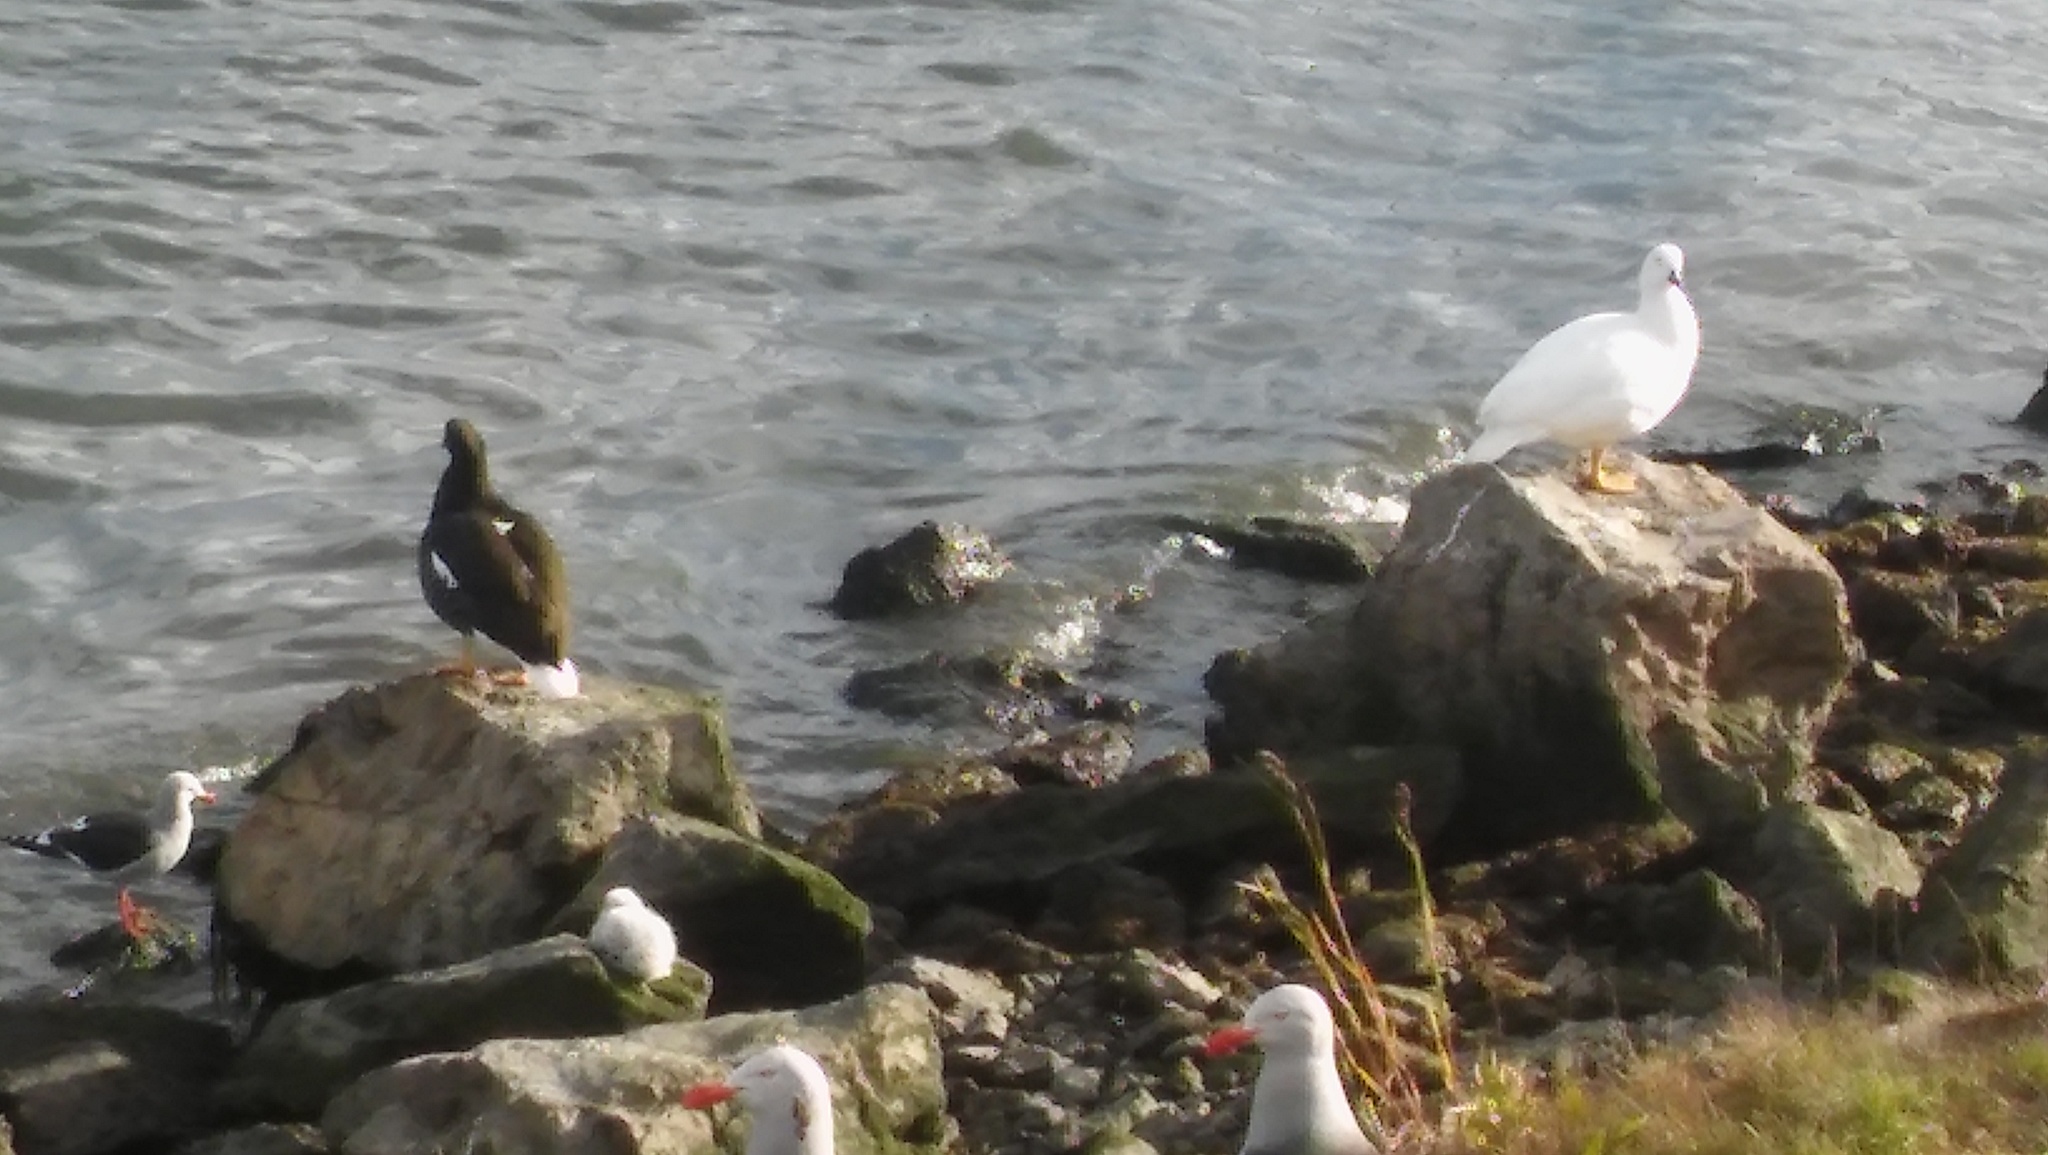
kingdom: Animalia
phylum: Chordata
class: Aves
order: Anseriformes
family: Anatidae
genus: Chloephaga
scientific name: Chloephaga hybrida
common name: Kelp goose
